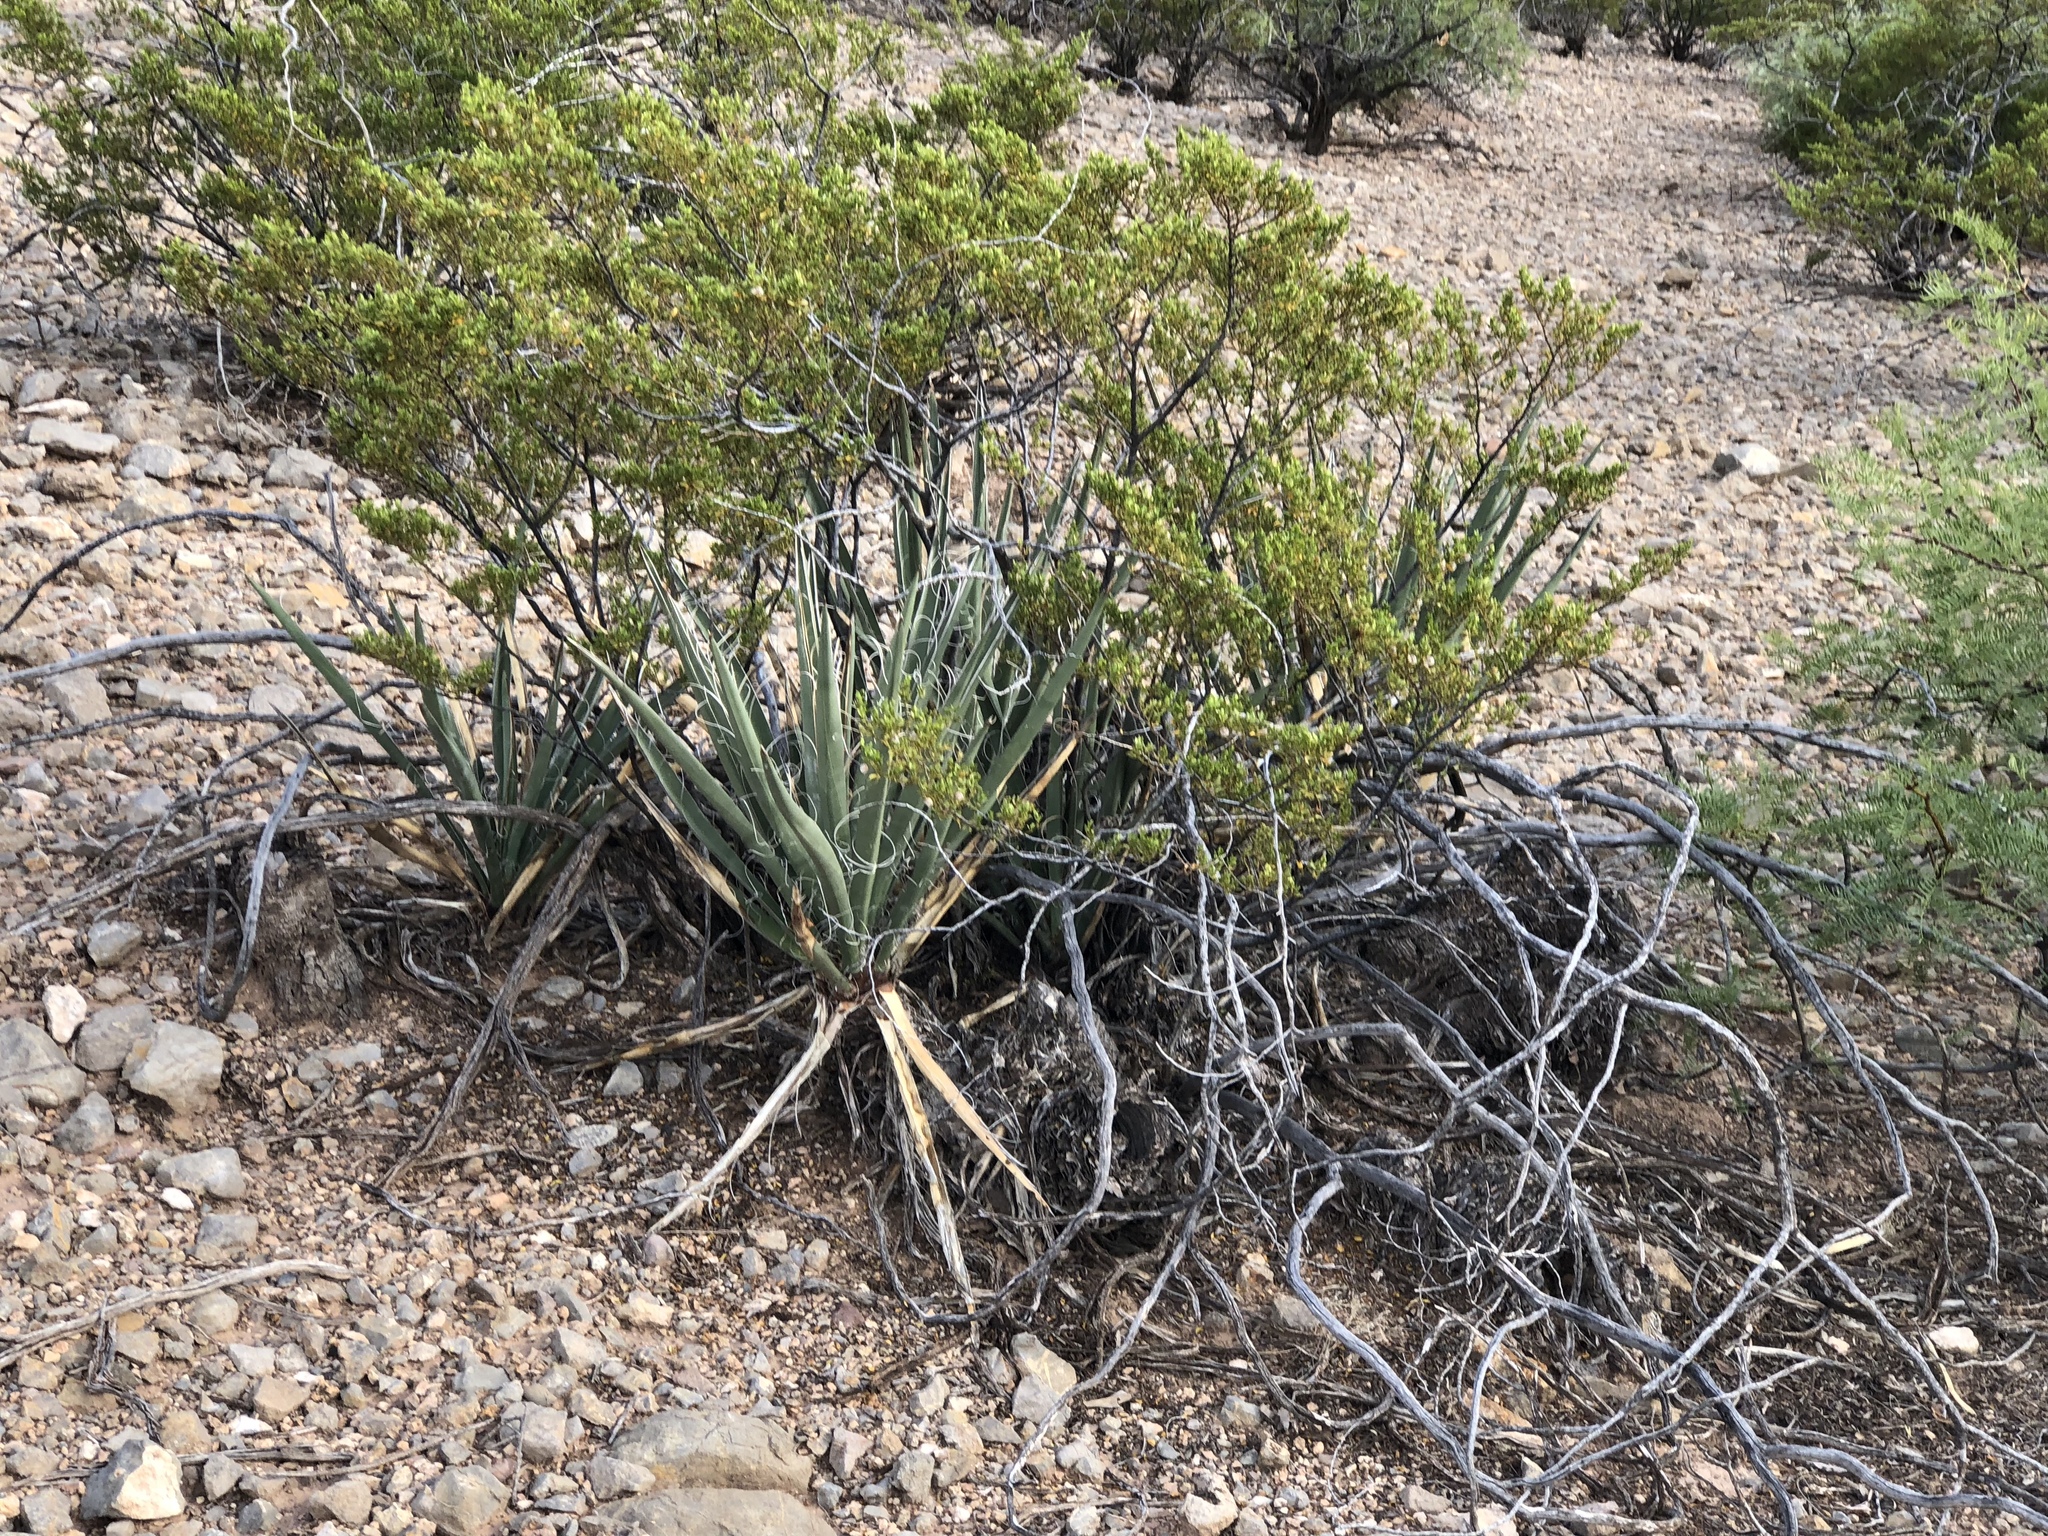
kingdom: Plantae
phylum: Tracheophyta
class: Liliopsida
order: Asparagales
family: Asparagaceae
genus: Yucca
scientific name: Yucca baccata
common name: Banana yucca
